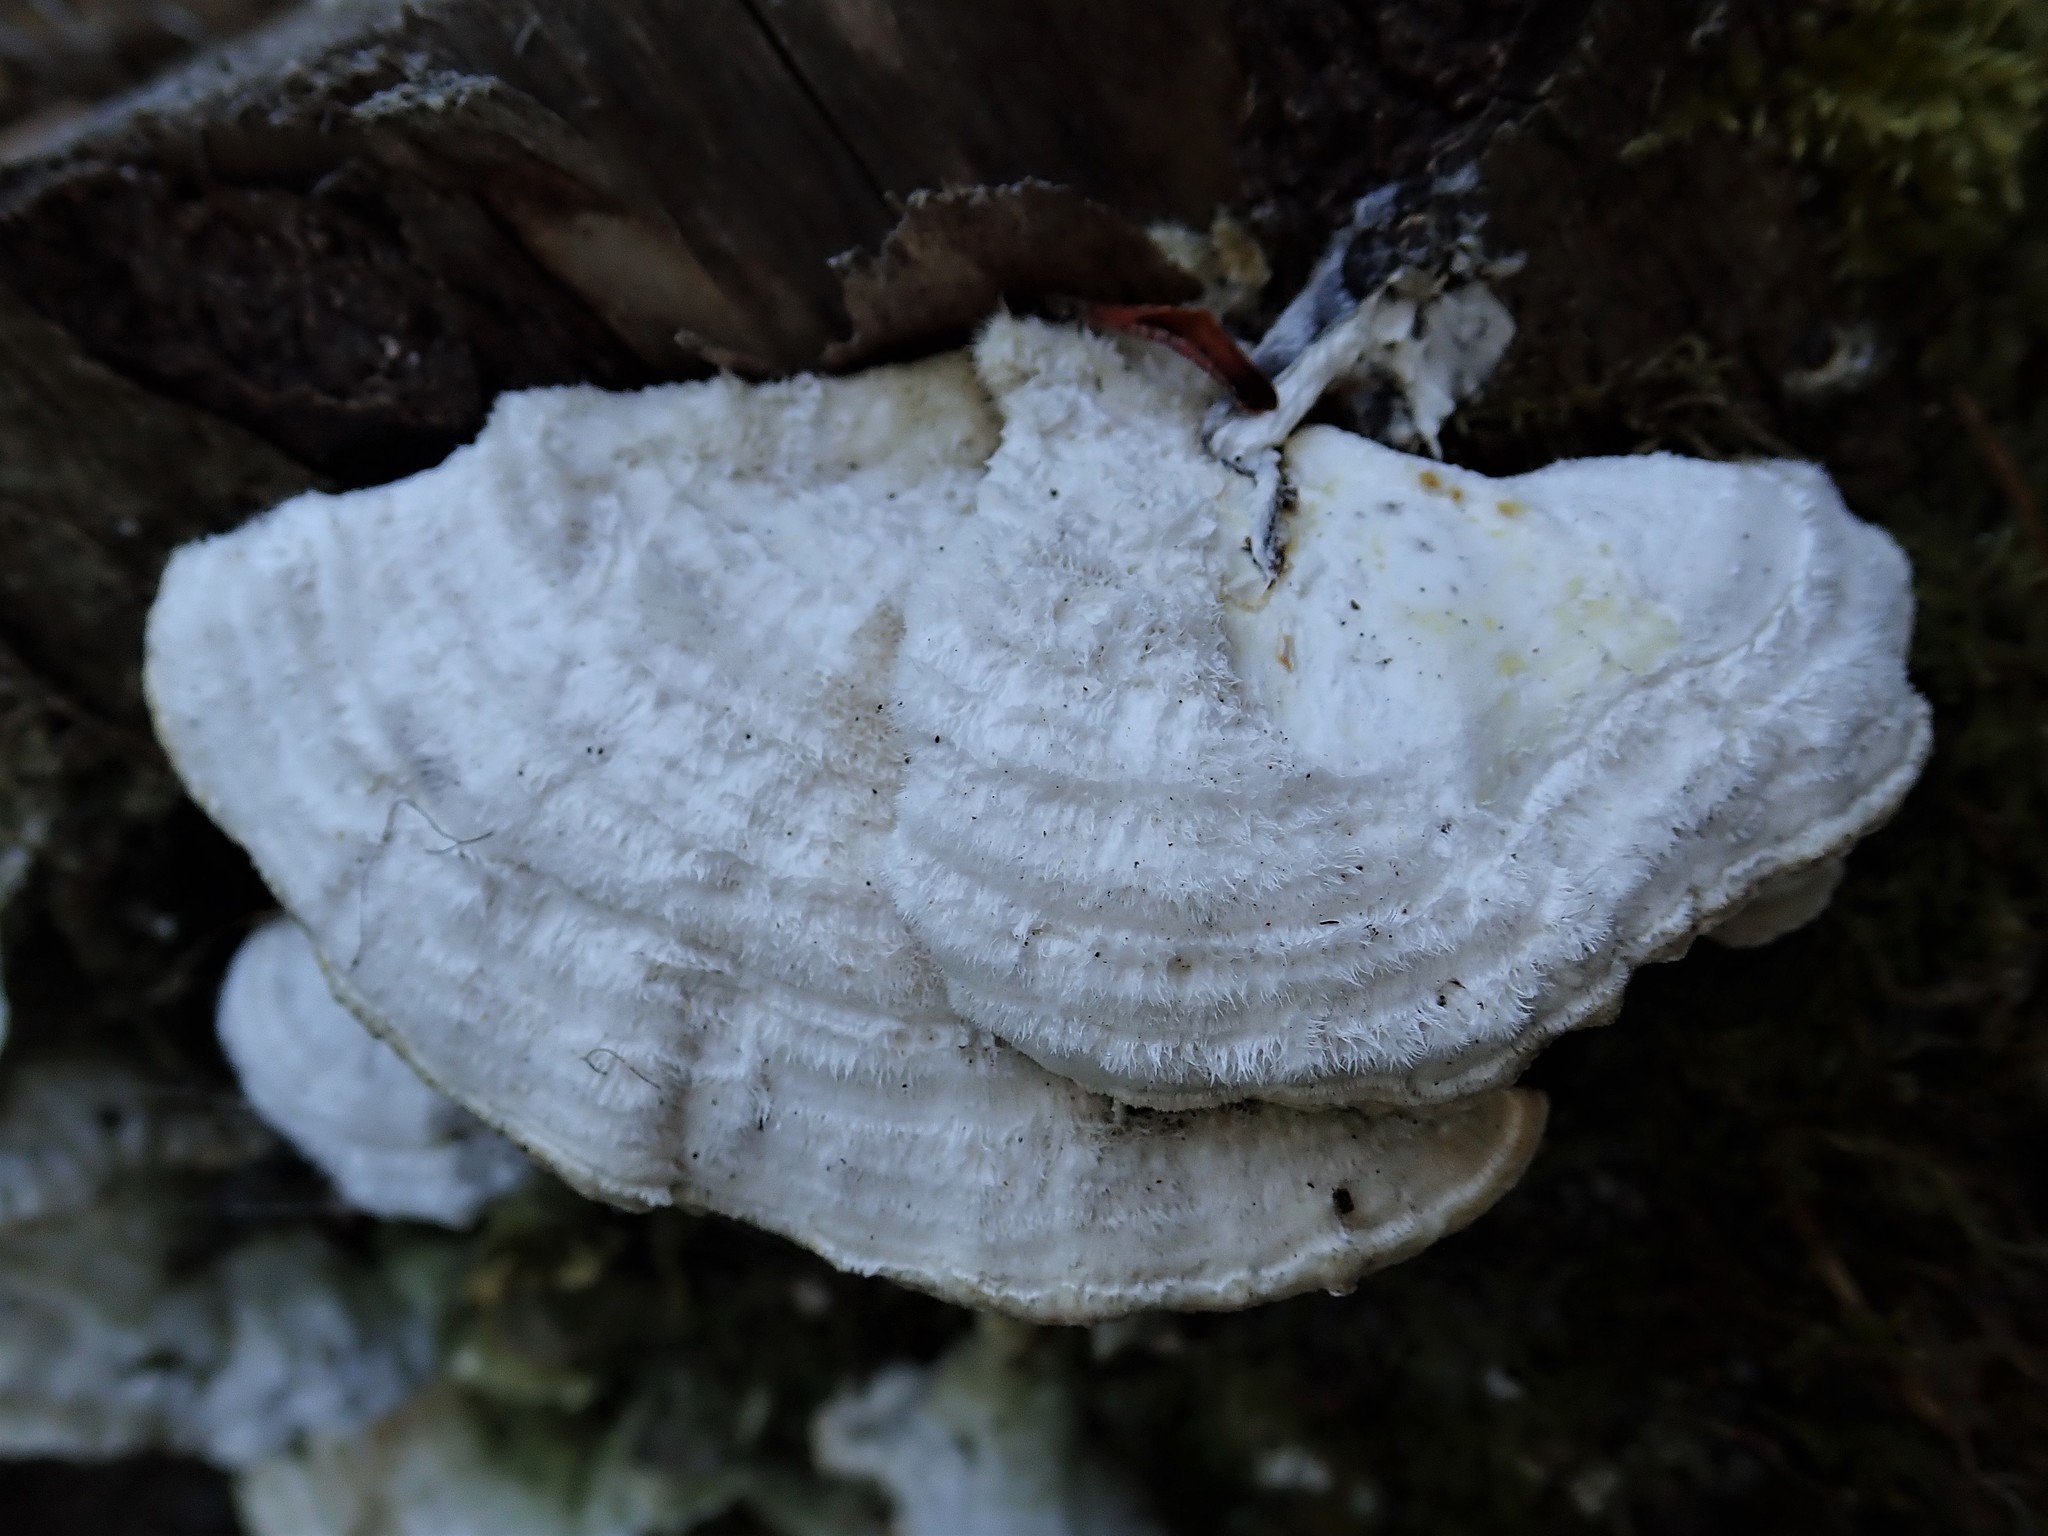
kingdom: Fungi
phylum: Basidiomycota
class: Agaricomycetes
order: Polyporales
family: Polyporaceae
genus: Lenzites
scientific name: Lenzites betulinus
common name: Birch mazegill
